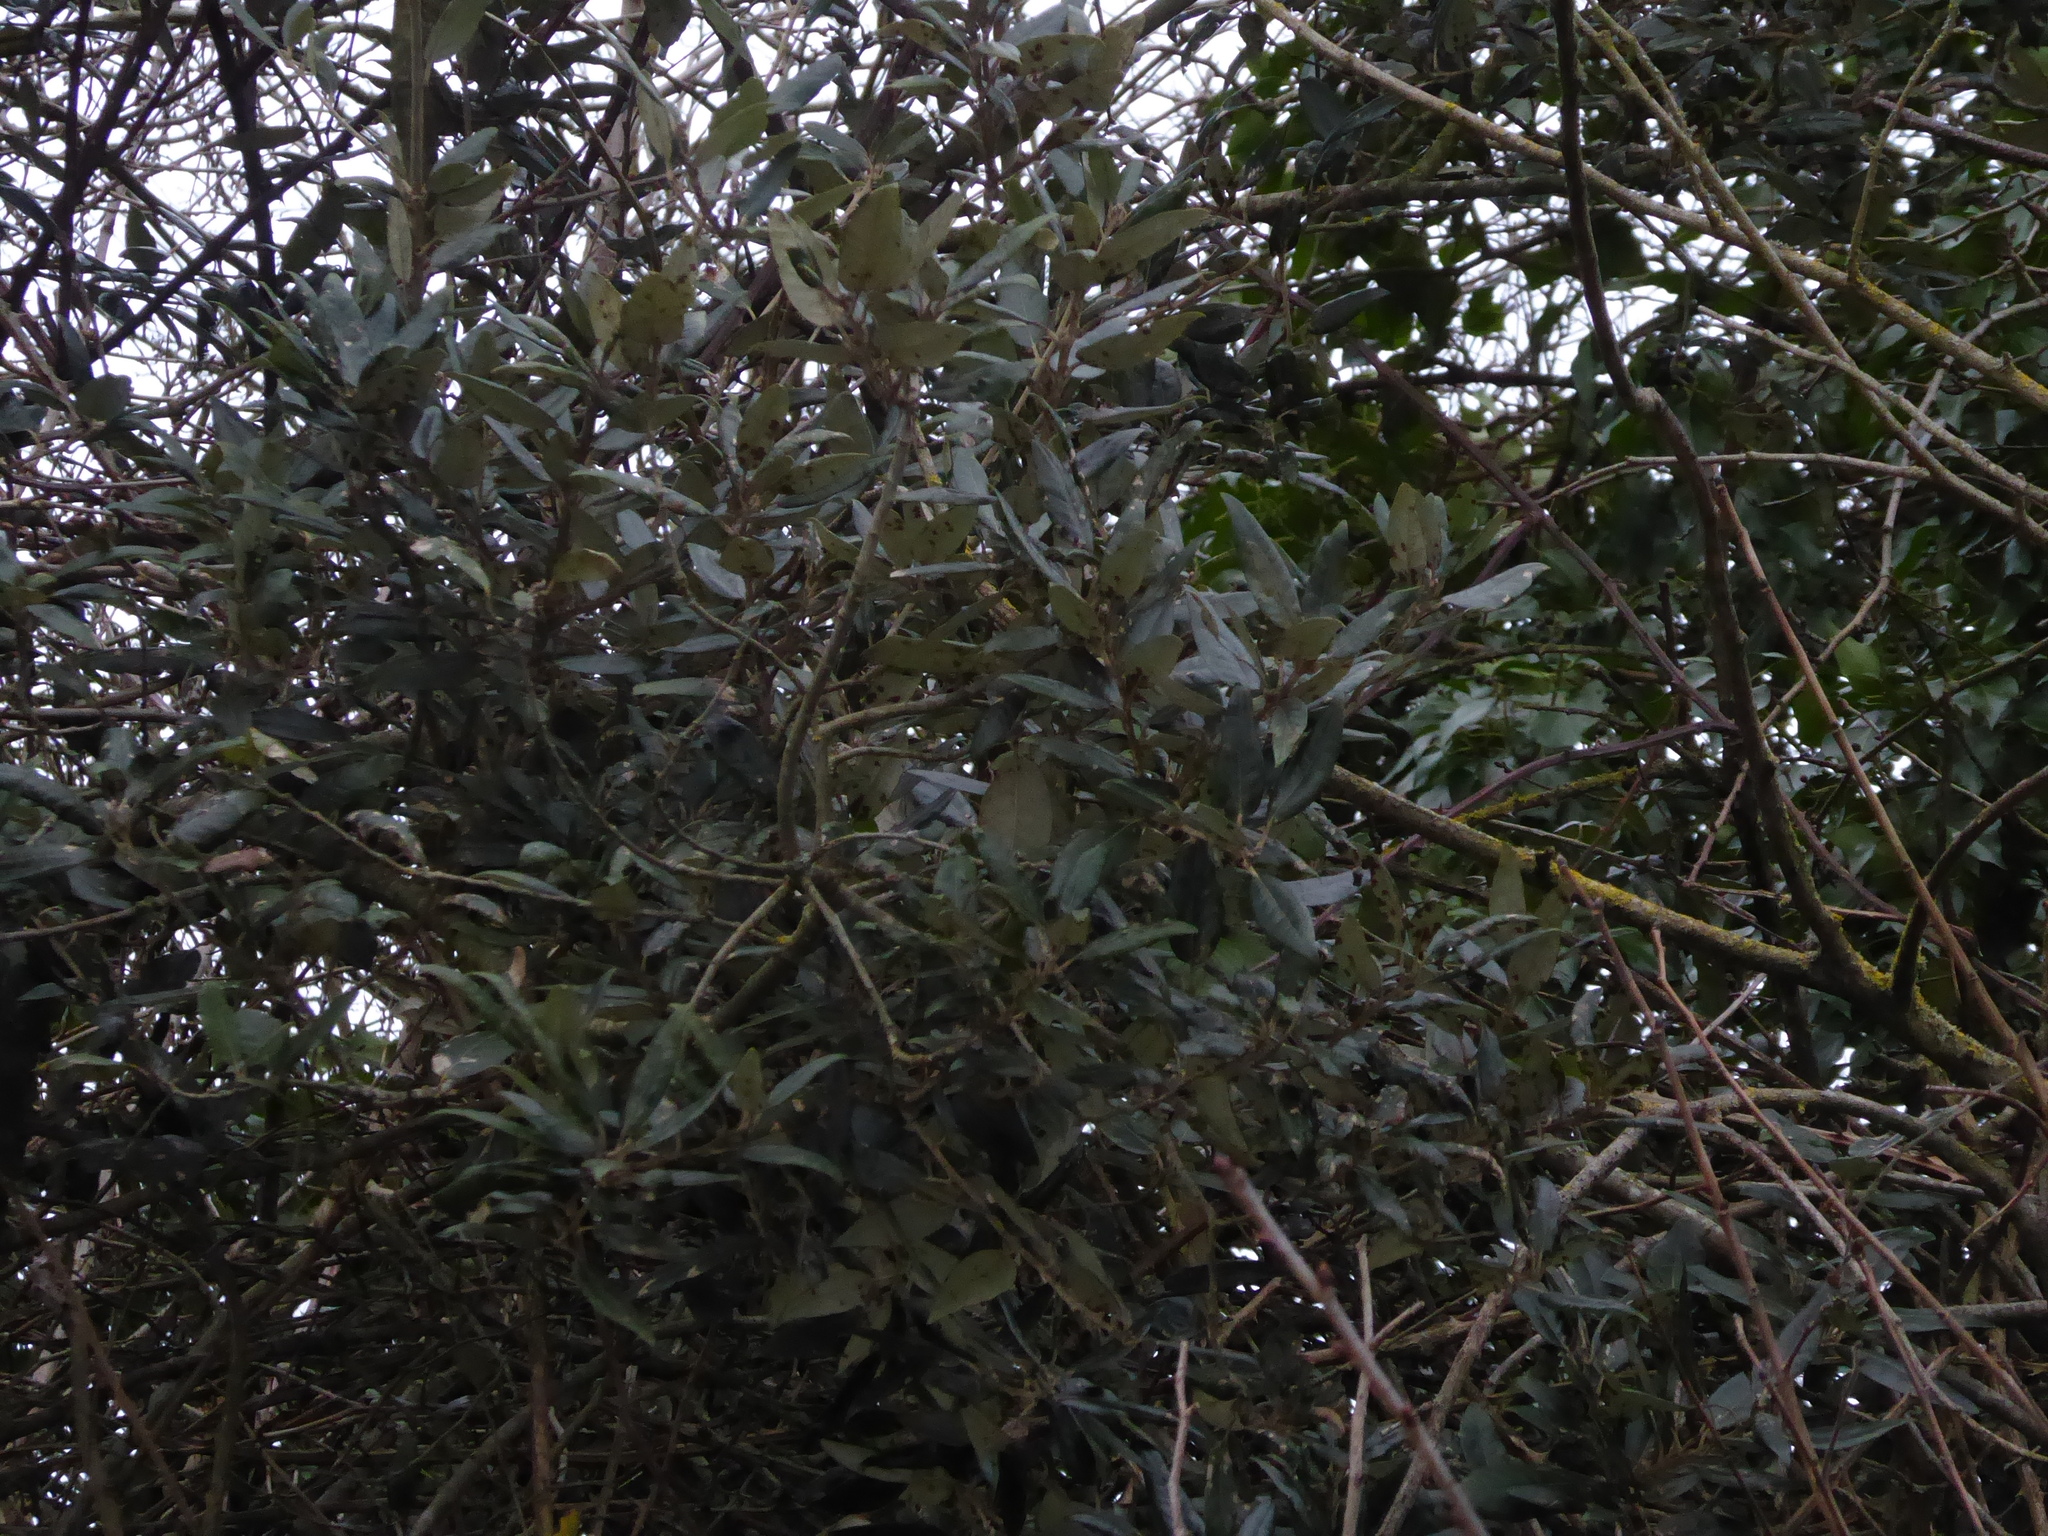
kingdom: Plantae
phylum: Tracheophyta
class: Magnoliopsida
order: Fagales
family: Fagaceae
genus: Quercus
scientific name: Quercus ilex
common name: Evergreen oak
